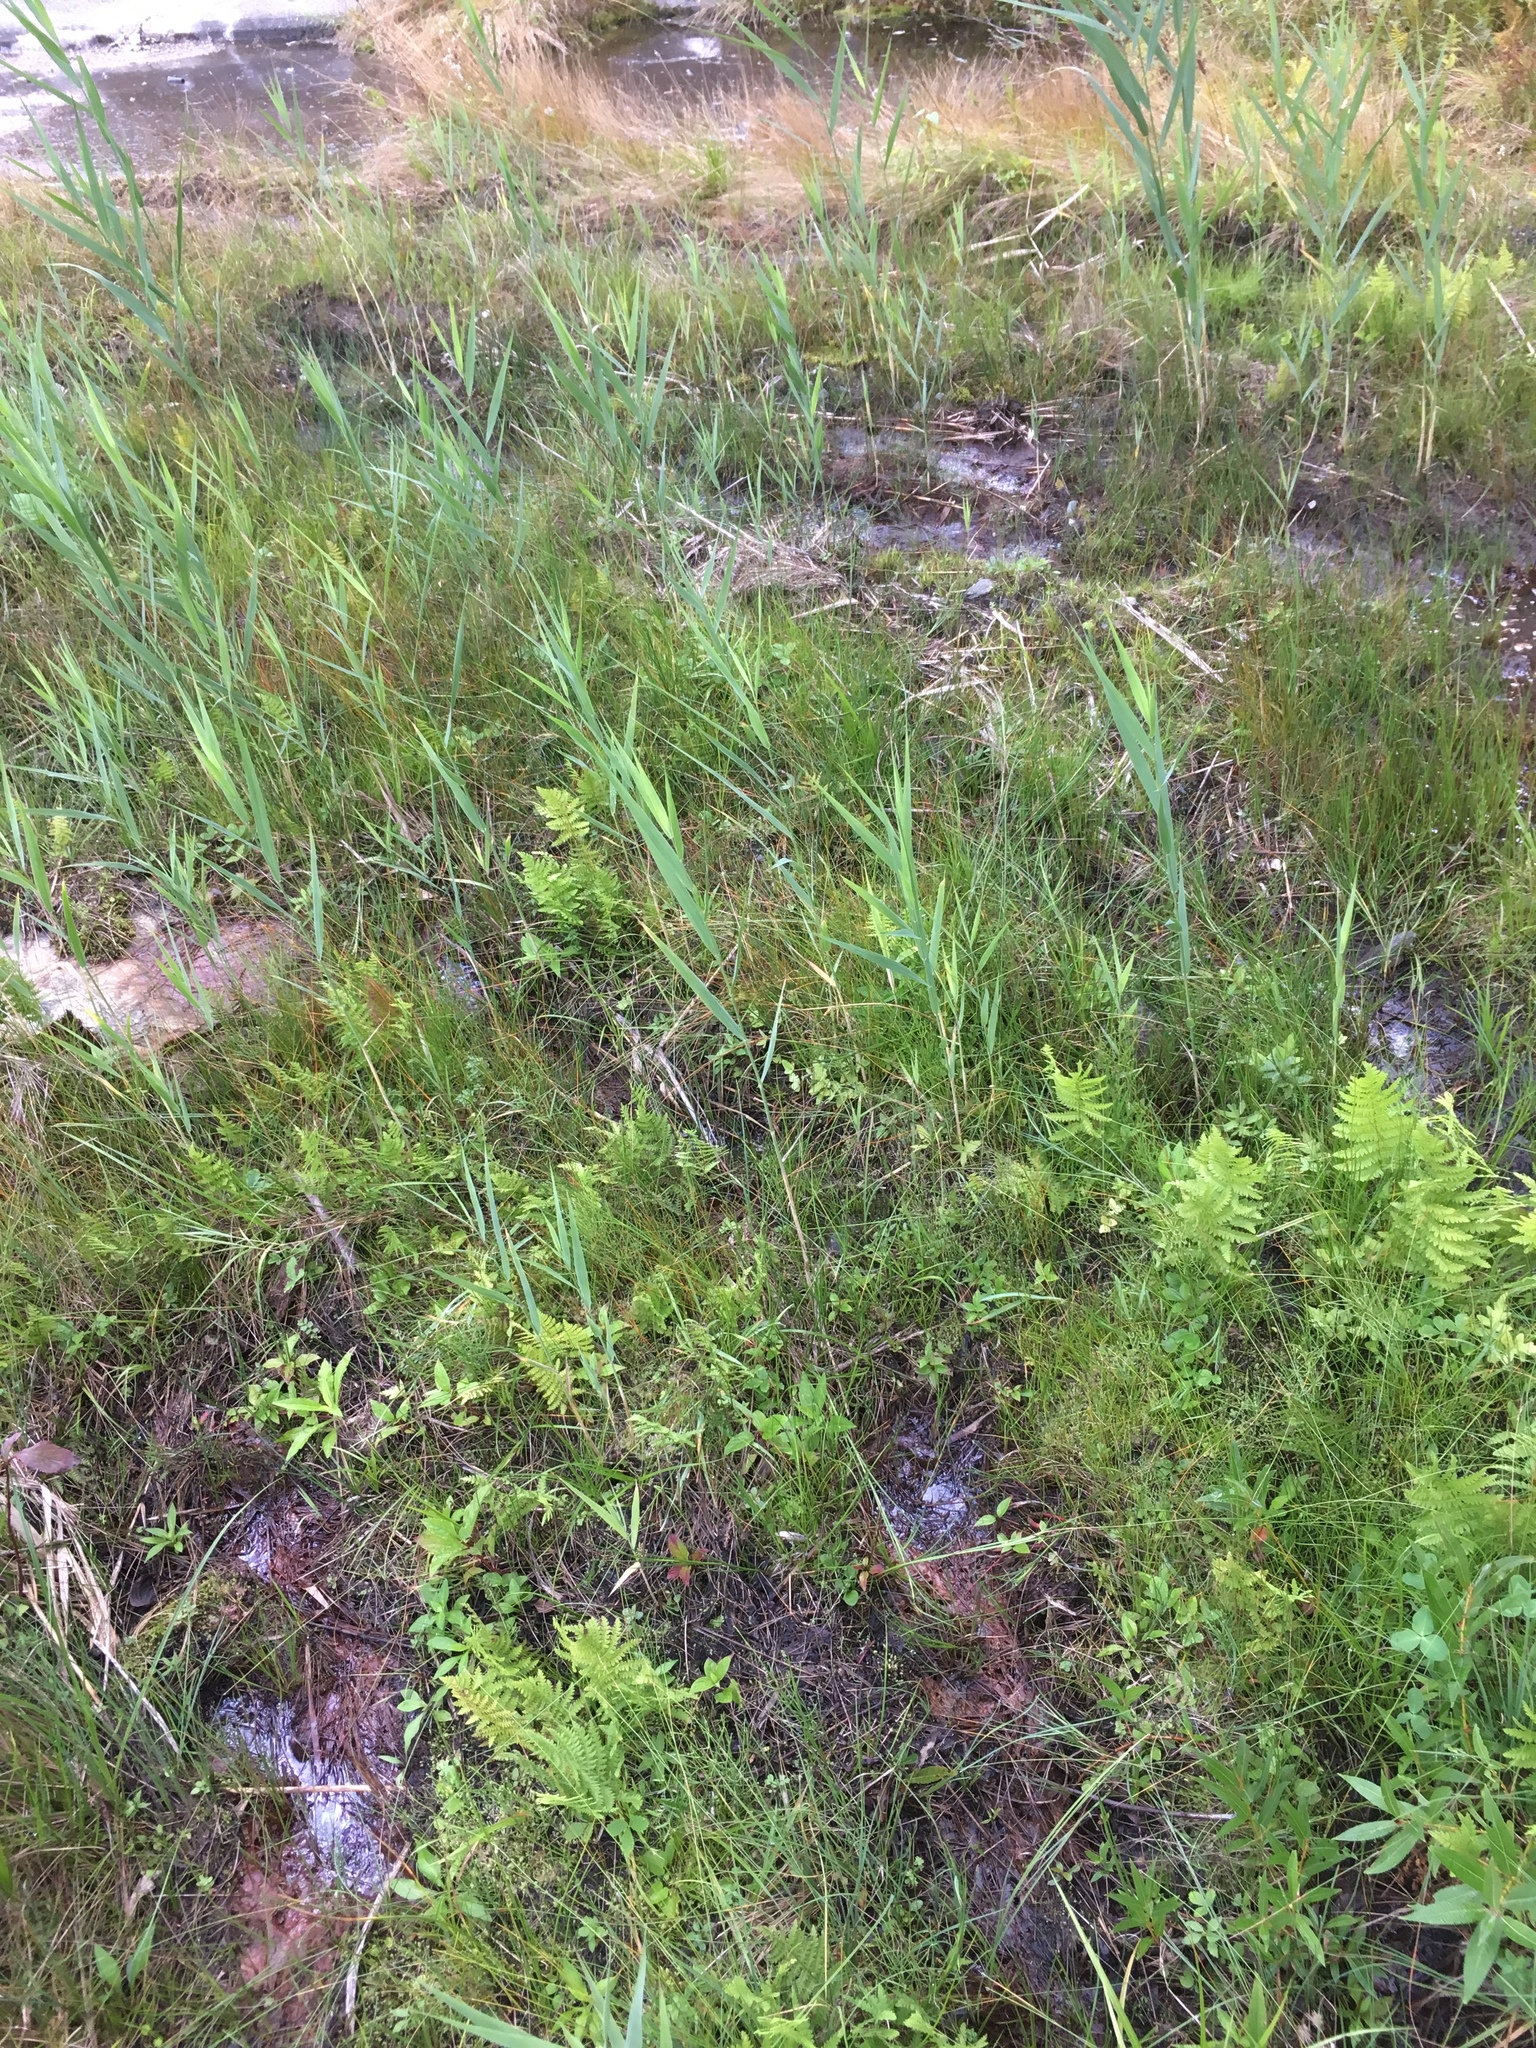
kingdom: Plantae
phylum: Tracheophyta
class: Liliopsida
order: Poales
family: Poaceae
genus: Phragmites
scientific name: Phragmites australis
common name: Common reed
